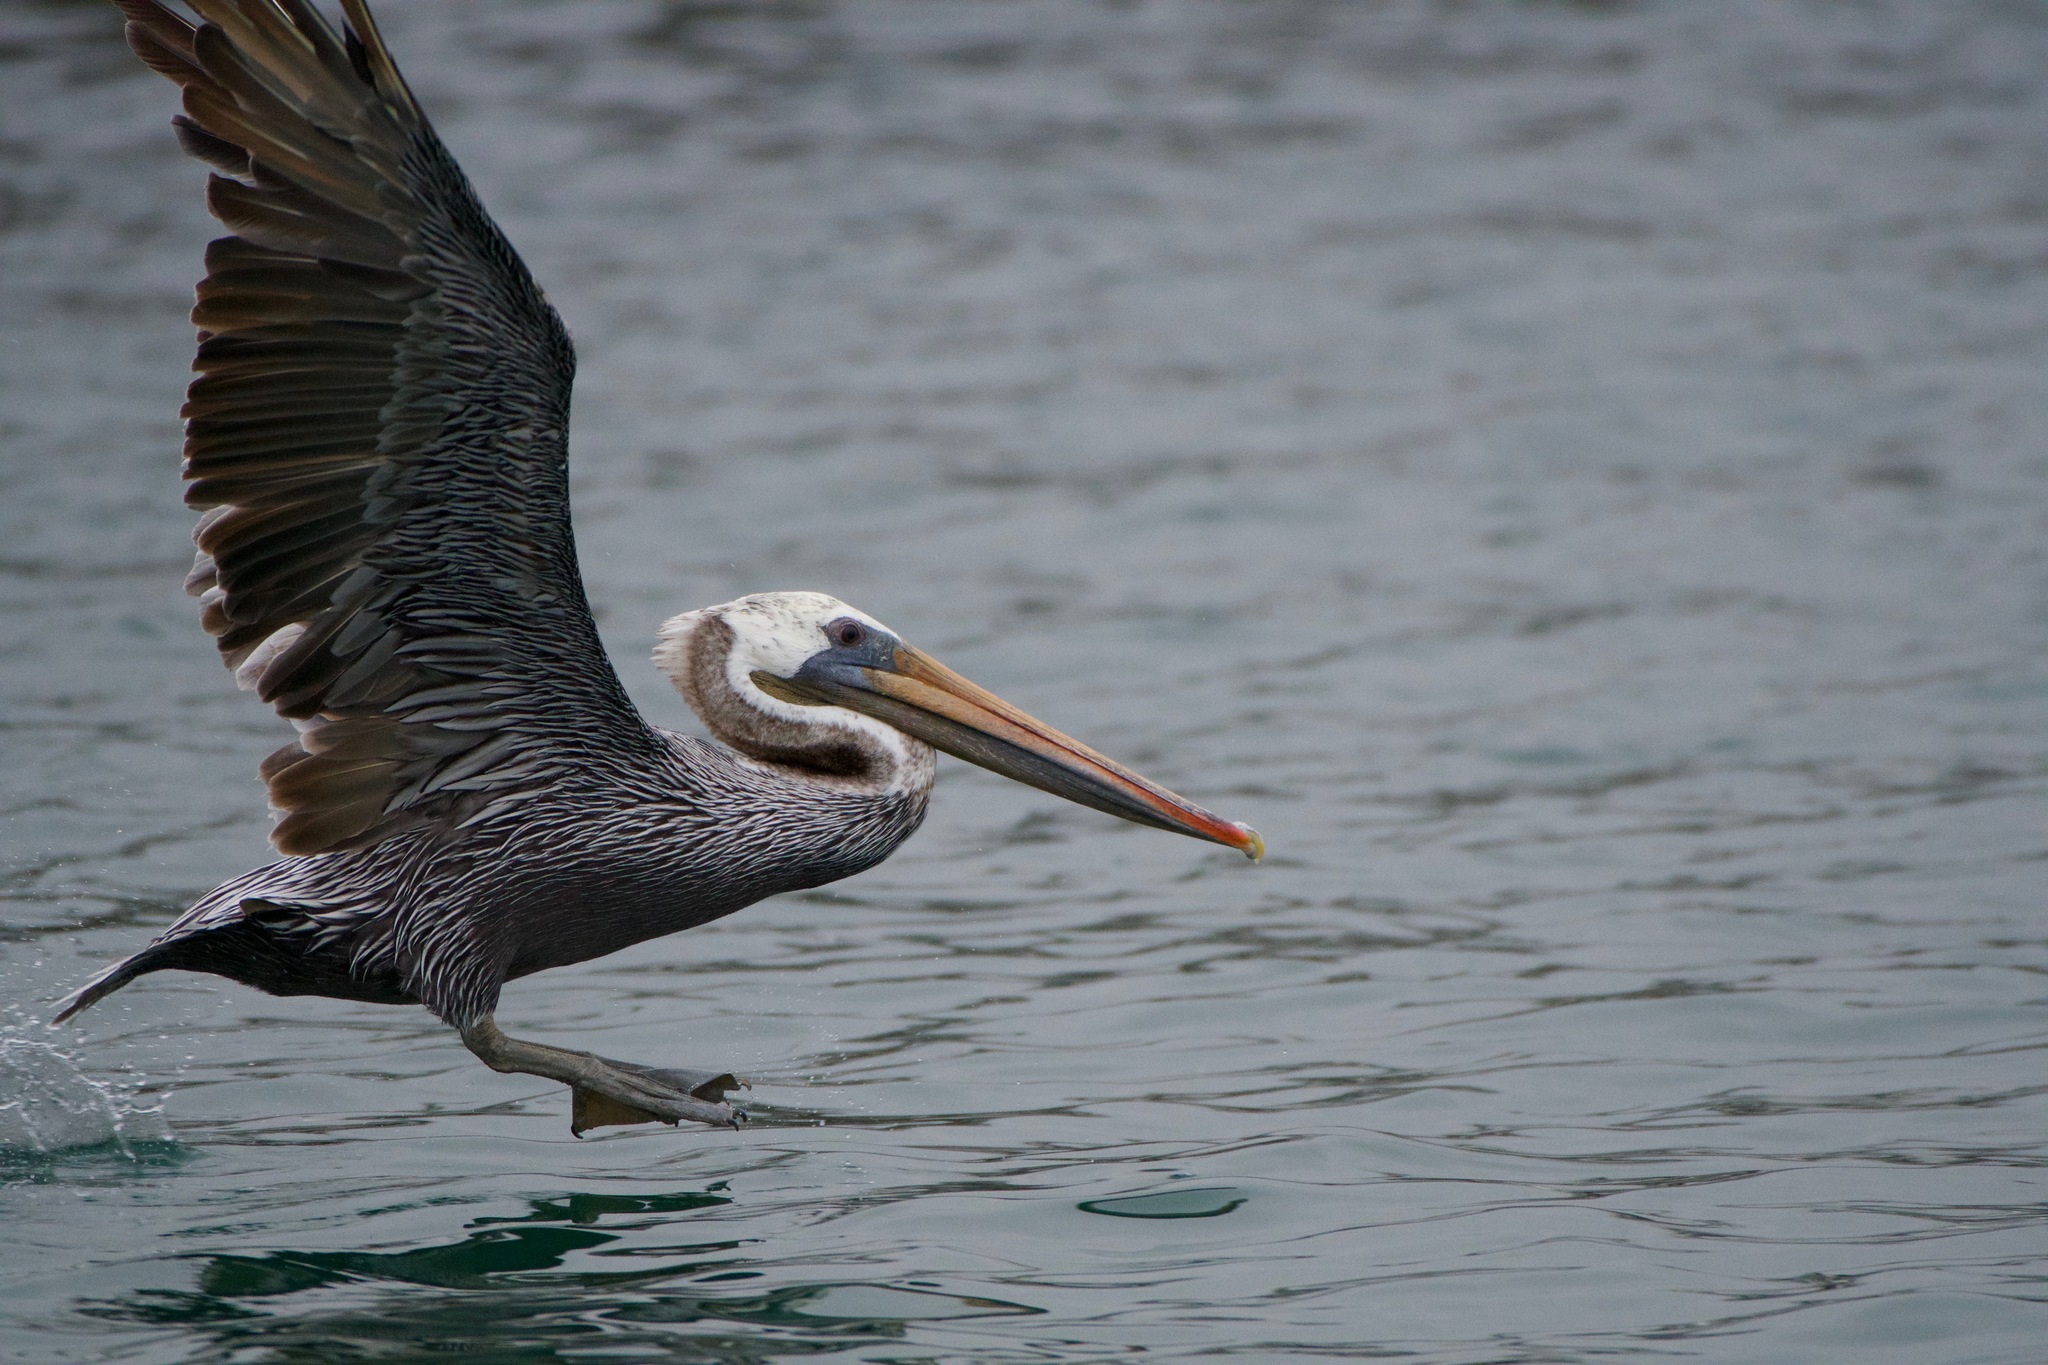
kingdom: Animalia
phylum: Chordata
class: Aves
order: Pelecaniformes
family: Pelecanidae
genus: Pelecanus
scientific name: Pelecanus occidentalis
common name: Brown pelican
